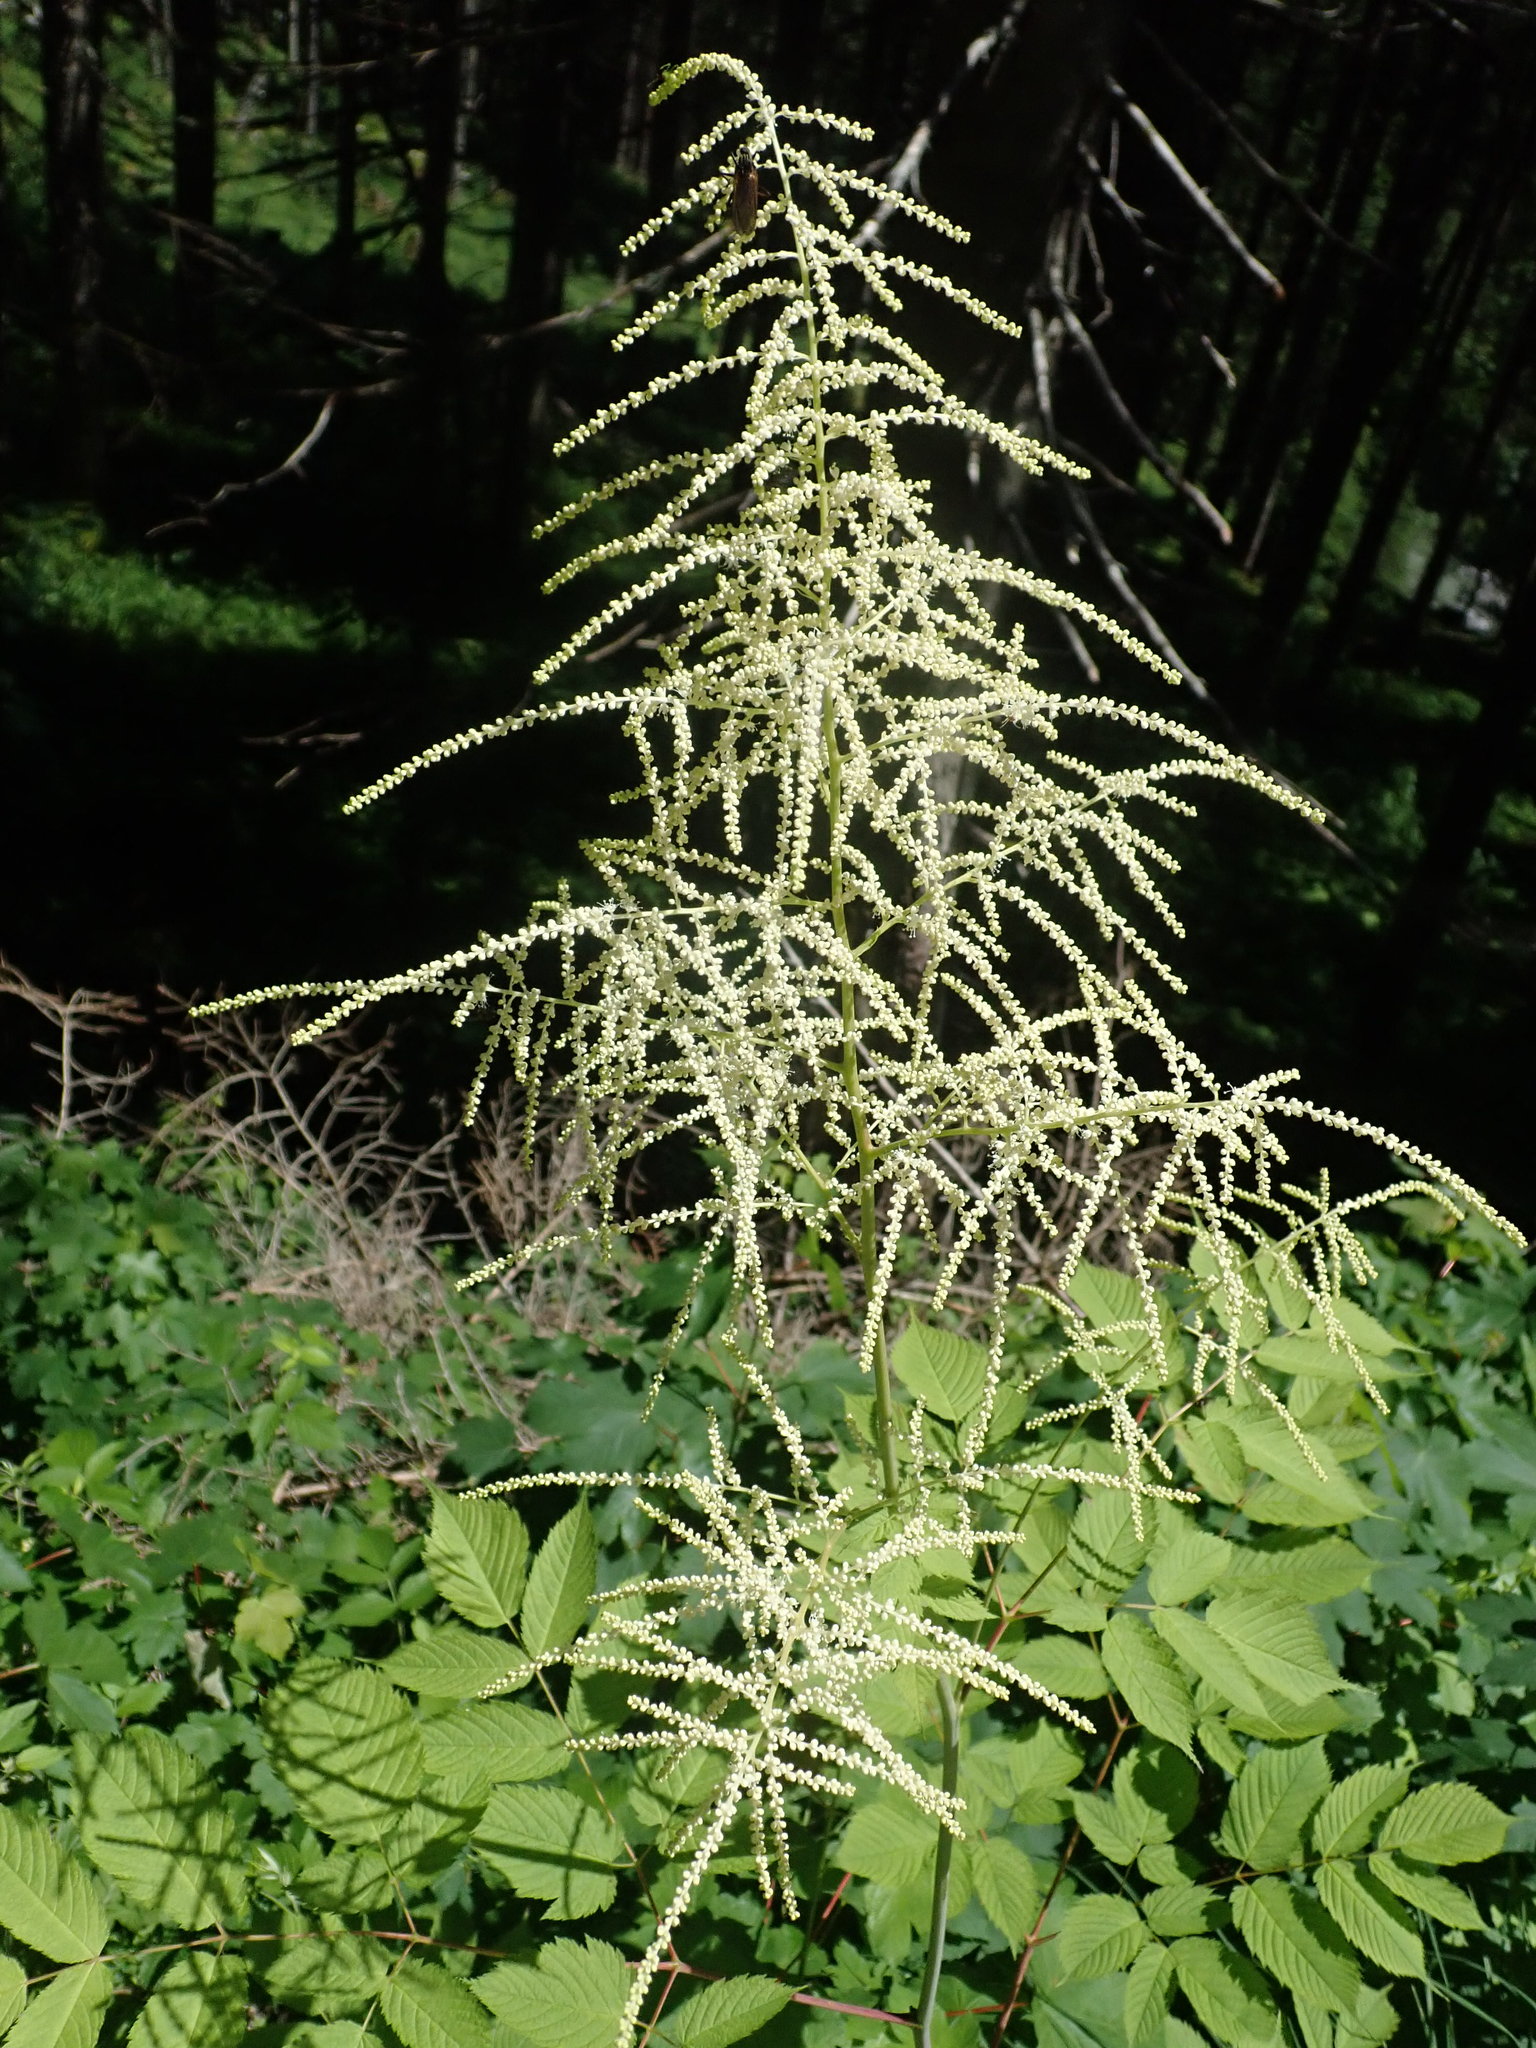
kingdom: Plantae
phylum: Tracheophyta
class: Magnoliopsida
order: Rosales
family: Rosaceae
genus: Aruncus
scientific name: Aruncus dioicus
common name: Buck's-beard
